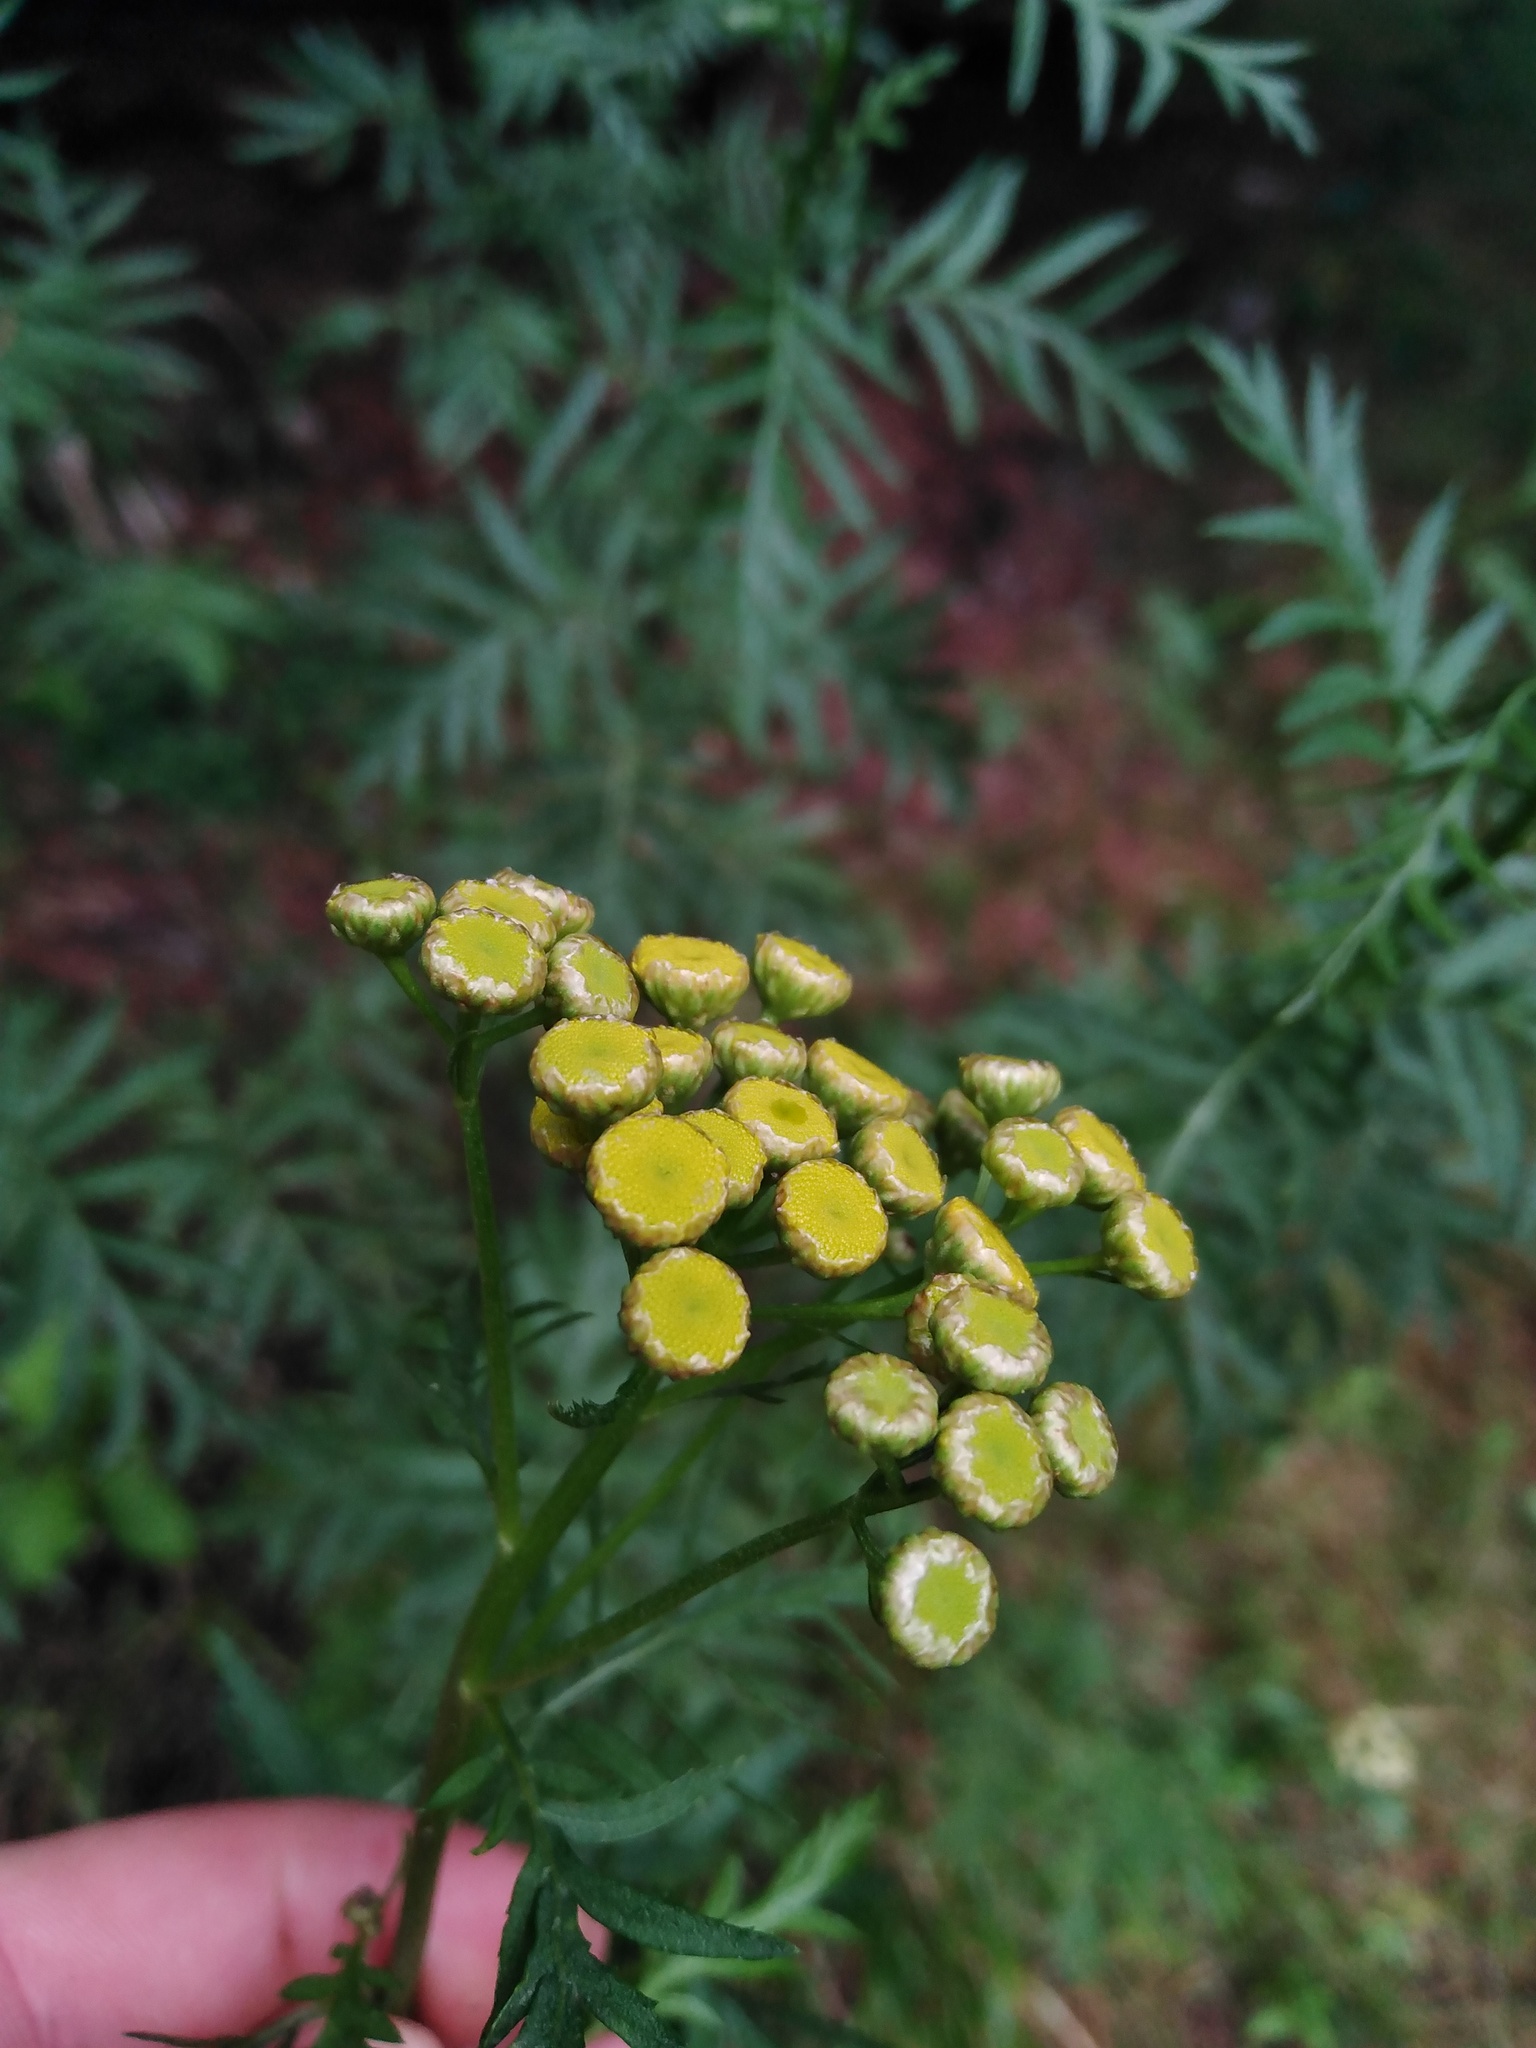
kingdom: Plantae
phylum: Tracheophyta
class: Magnoliopsida
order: Asterales
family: Asteraceae
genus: Tanacetum
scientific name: Tanacetum vulgare
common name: Common tansy
